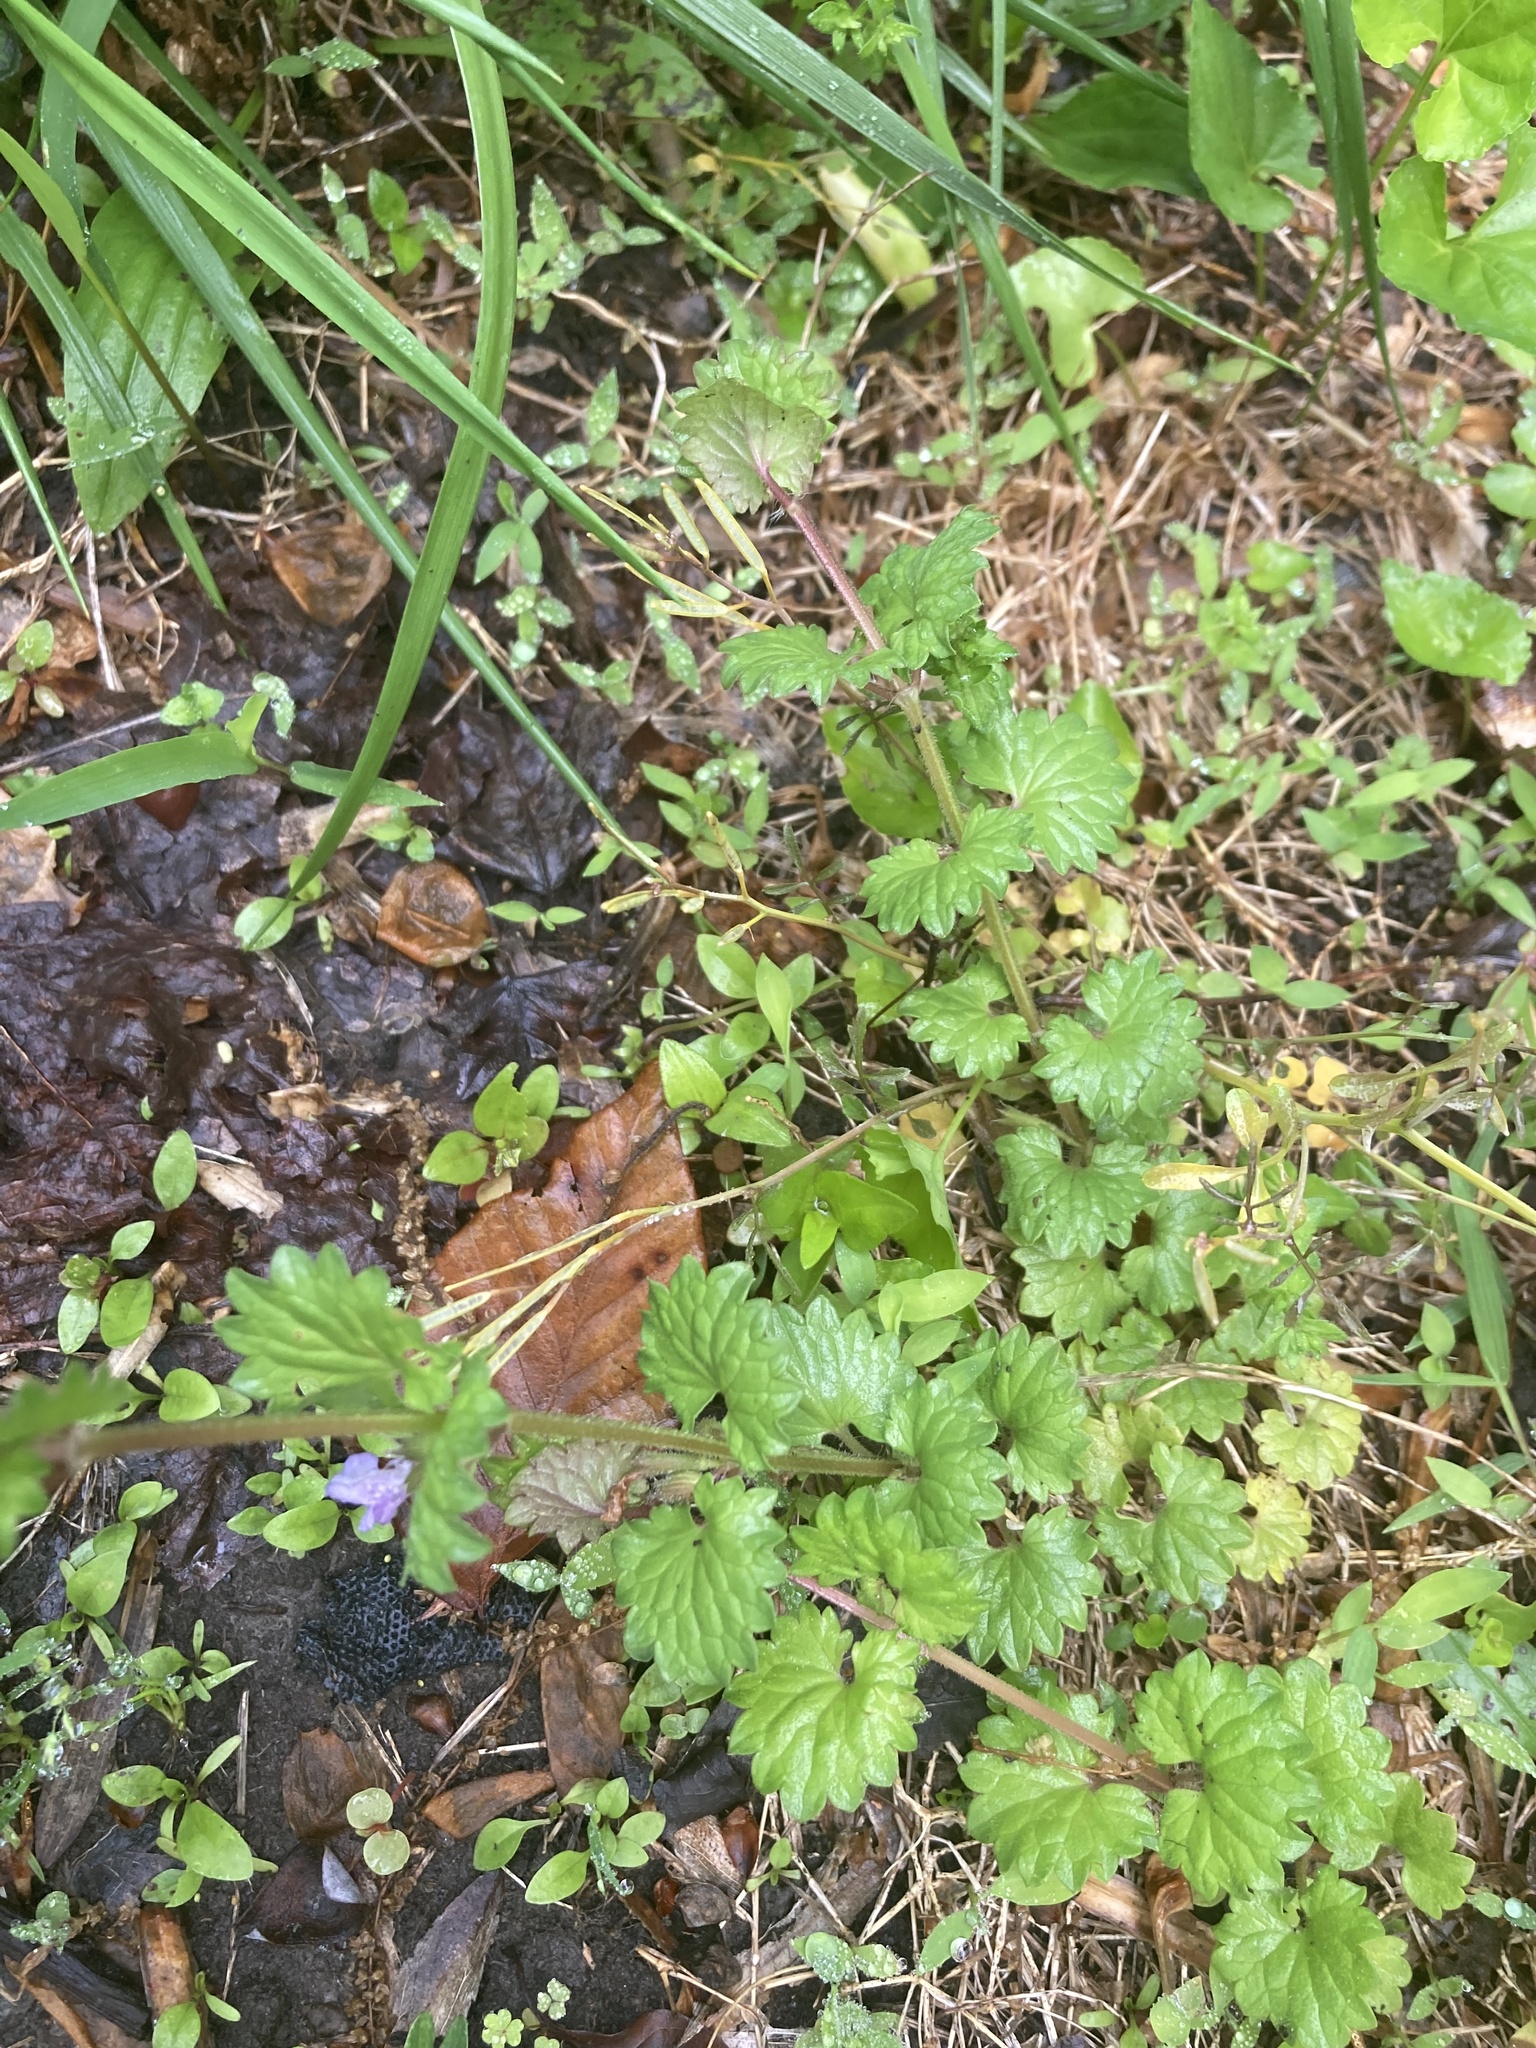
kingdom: Plantae
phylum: Tracheophyta
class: Magnoliopsida
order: Lamiales
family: Lamiaceae
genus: Glechoma
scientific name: Glechoma hederacea
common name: Ground ivy
